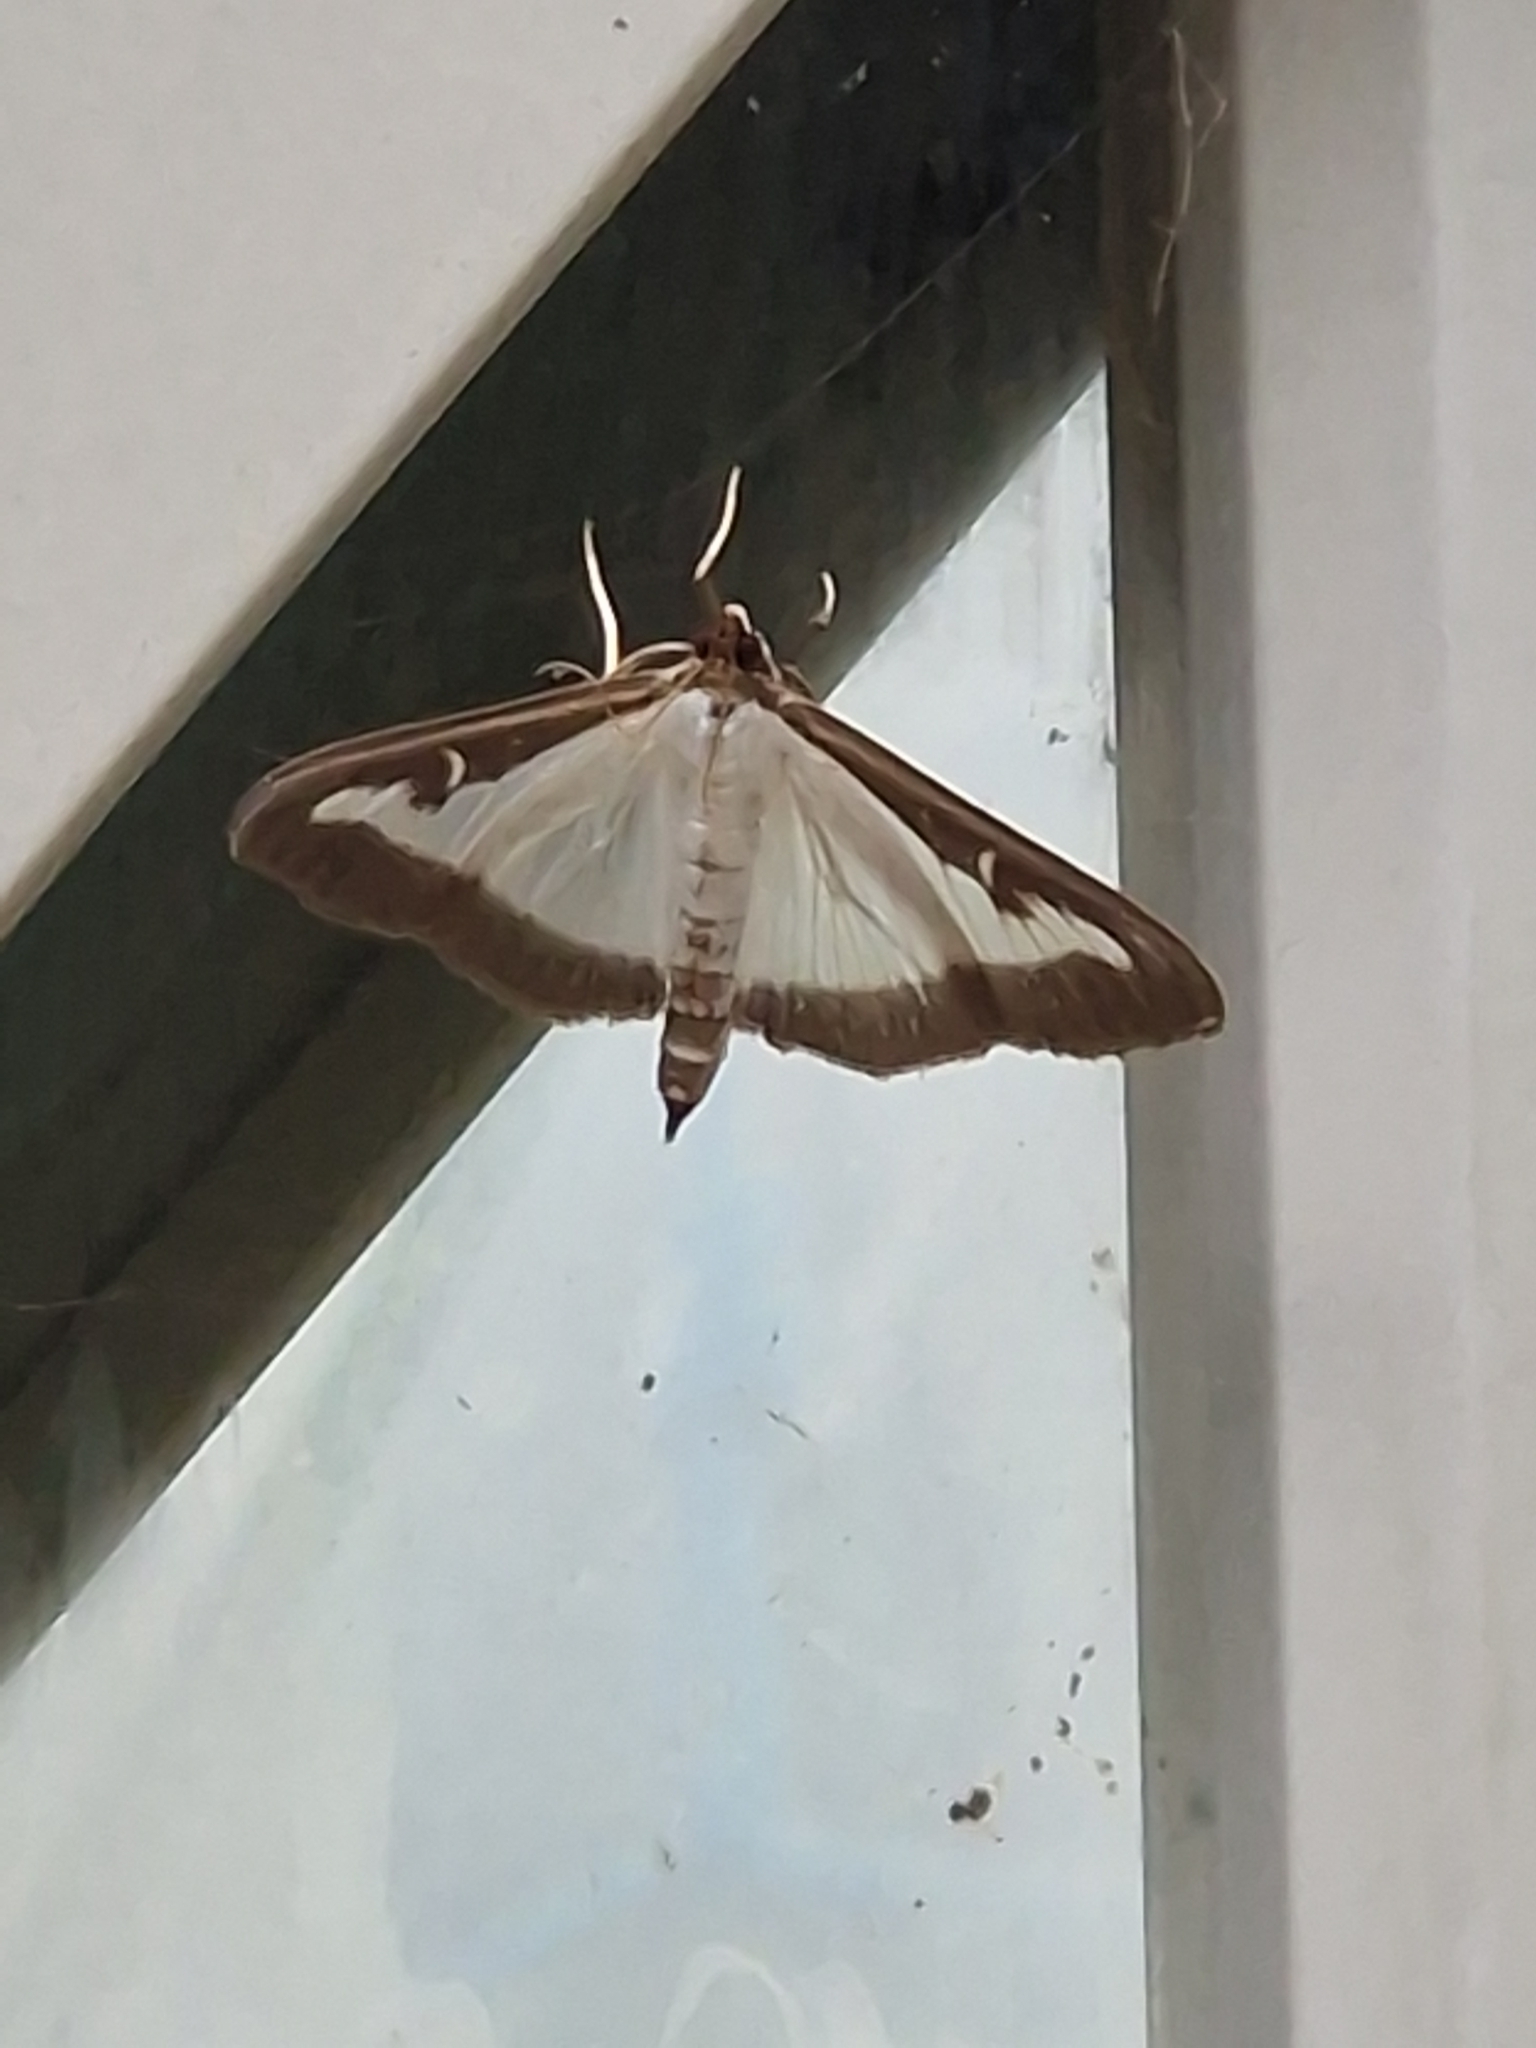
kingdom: Animalia
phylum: Arthropoda
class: Insecta
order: Lepidoptera
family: Crambidae
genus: Cydalima
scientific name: Cydalima perspectalis
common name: Box tree moth
